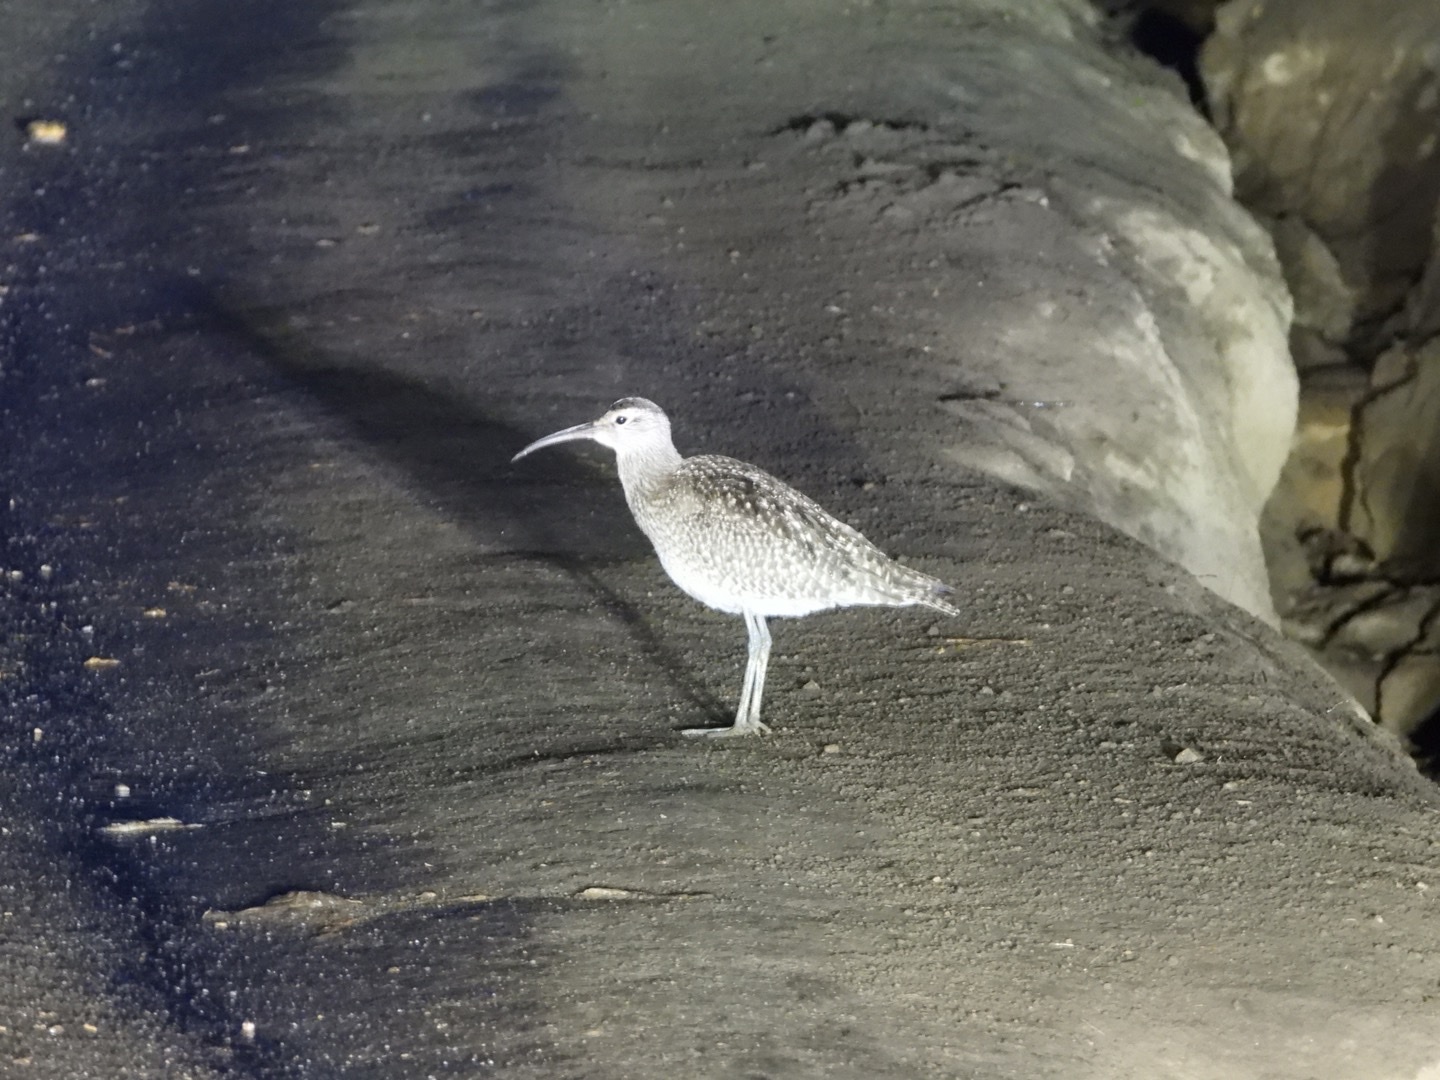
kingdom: Animalia
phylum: Chordata
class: Aves
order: Charadriiformes
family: Scolopacidae
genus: Numenius
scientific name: Numenius phaeopus
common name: Whimbrel
